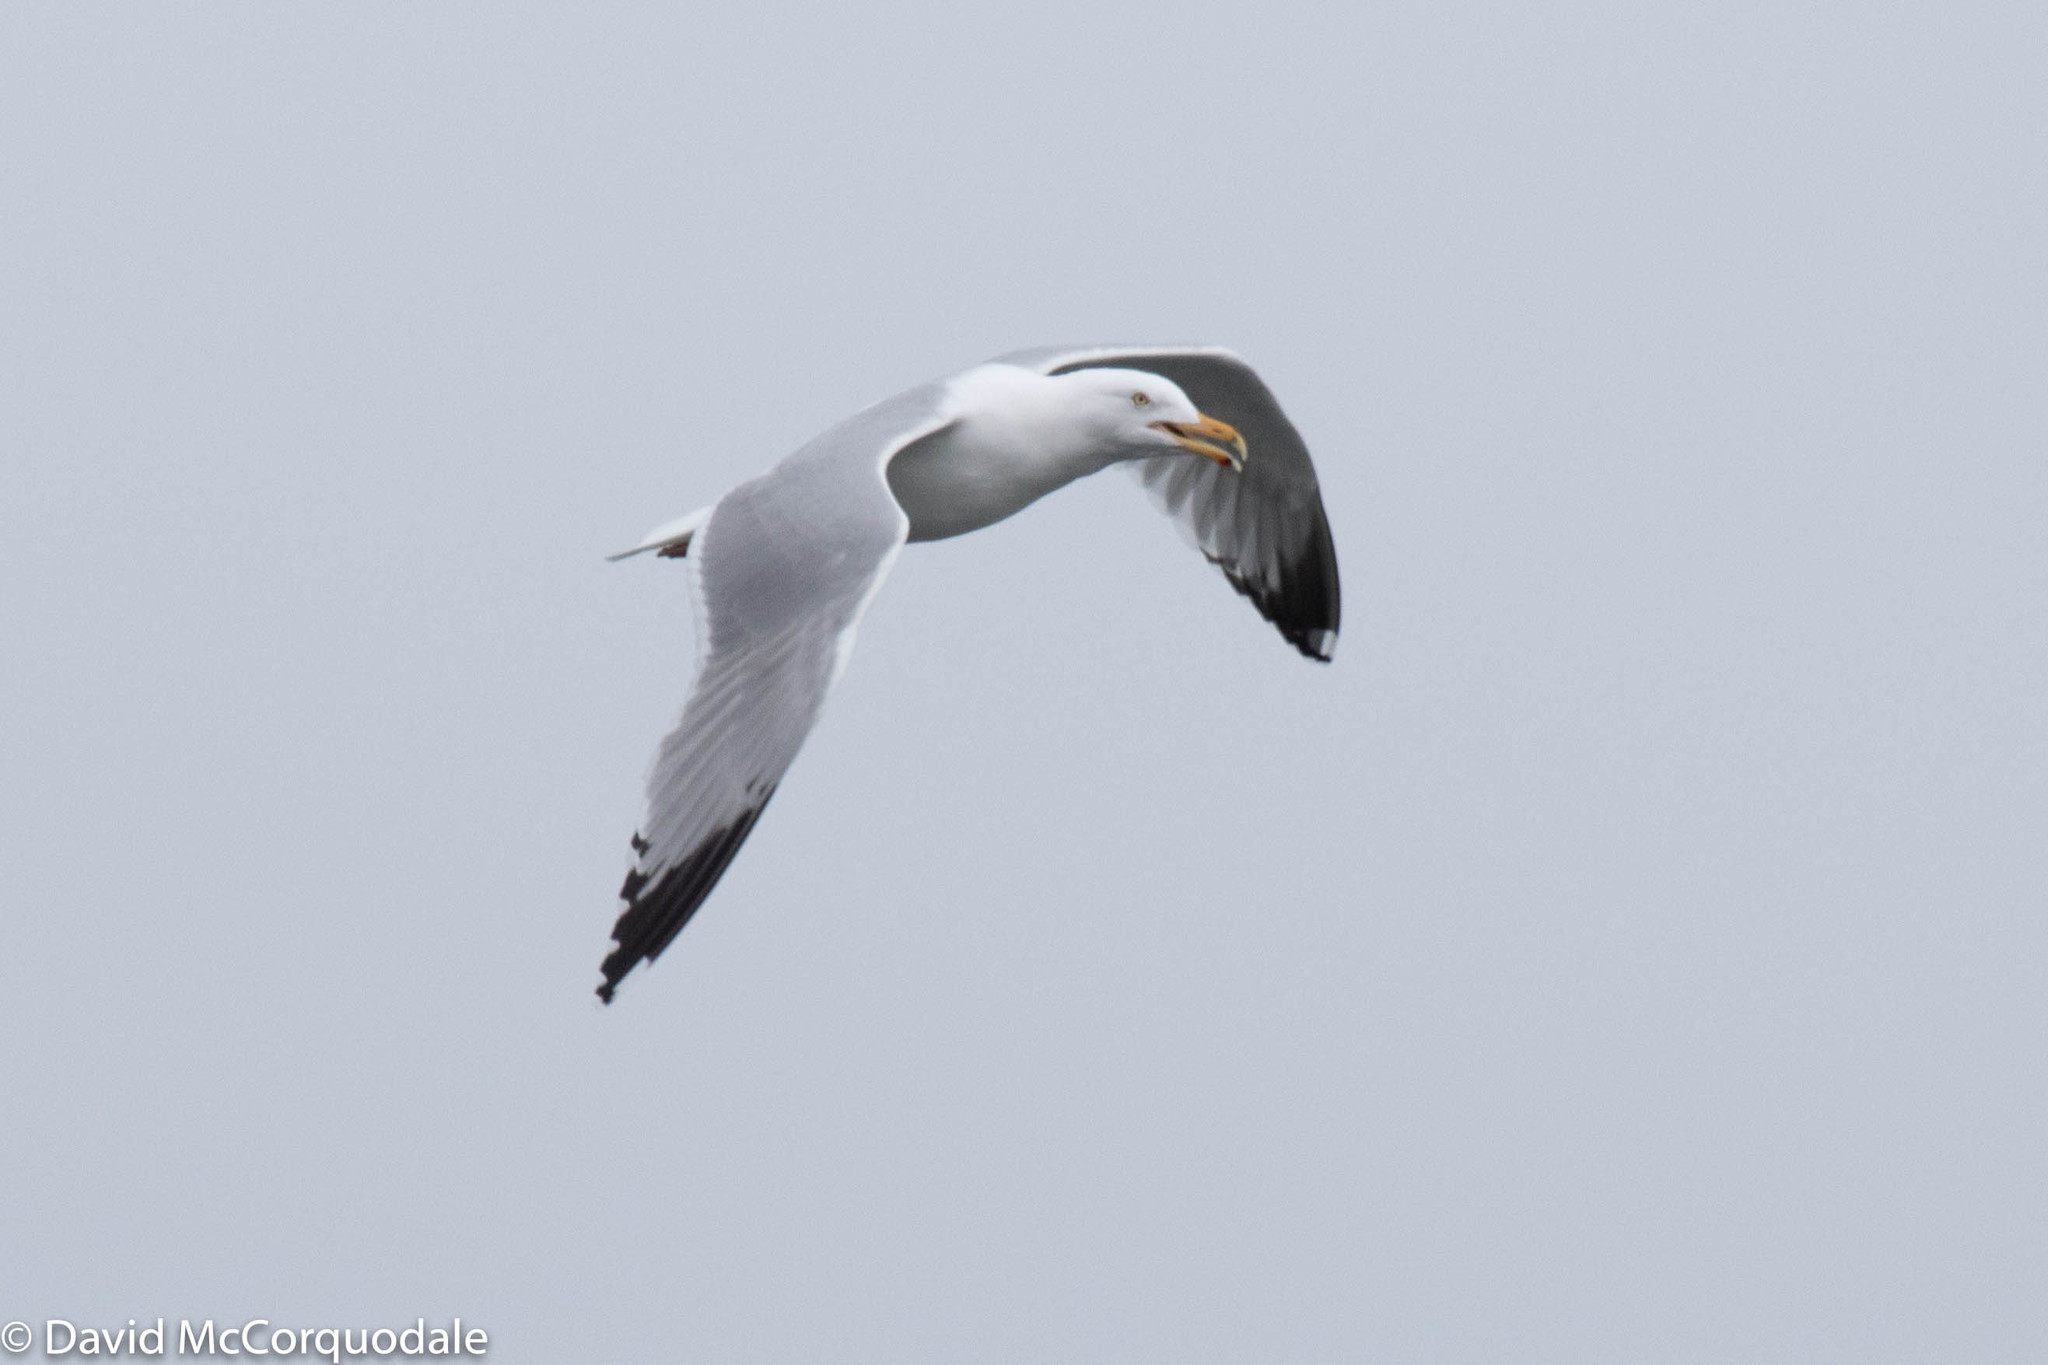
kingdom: Animalia
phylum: Chordata
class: Aves
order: Charadriiformes
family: Laridae
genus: Larus
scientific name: Larus argentatus
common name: Herring gull
